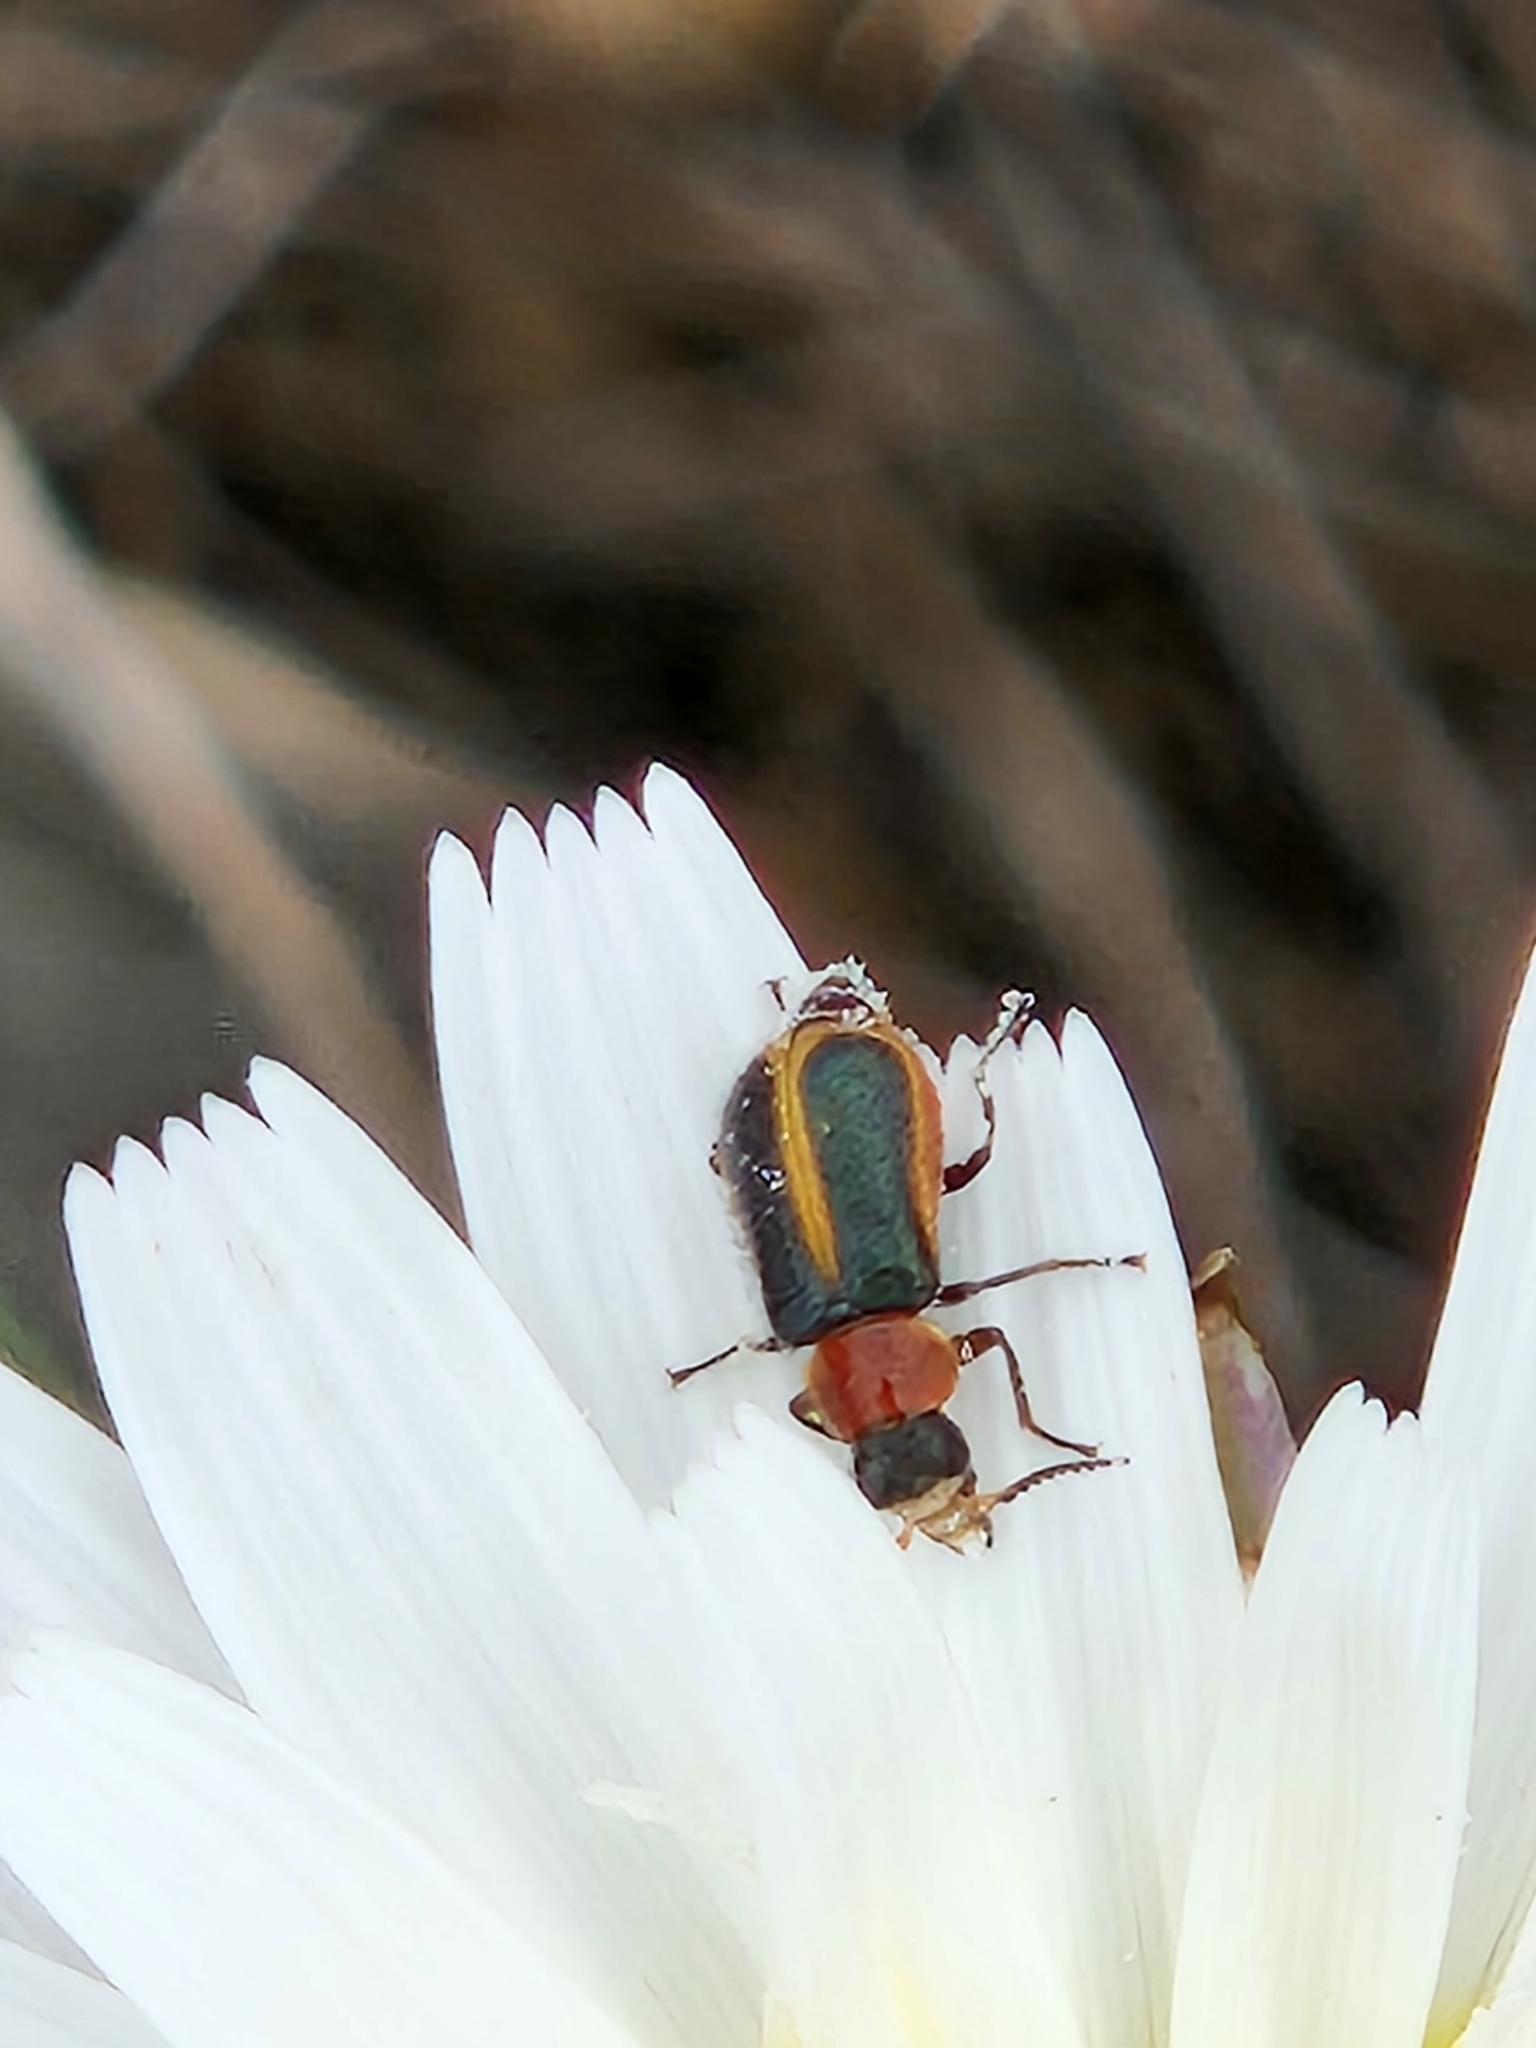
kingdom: Animalia
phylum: Arthropoda
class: Insecta
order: Coleoptera
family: Melyridae
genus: Collops
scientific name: Collops
